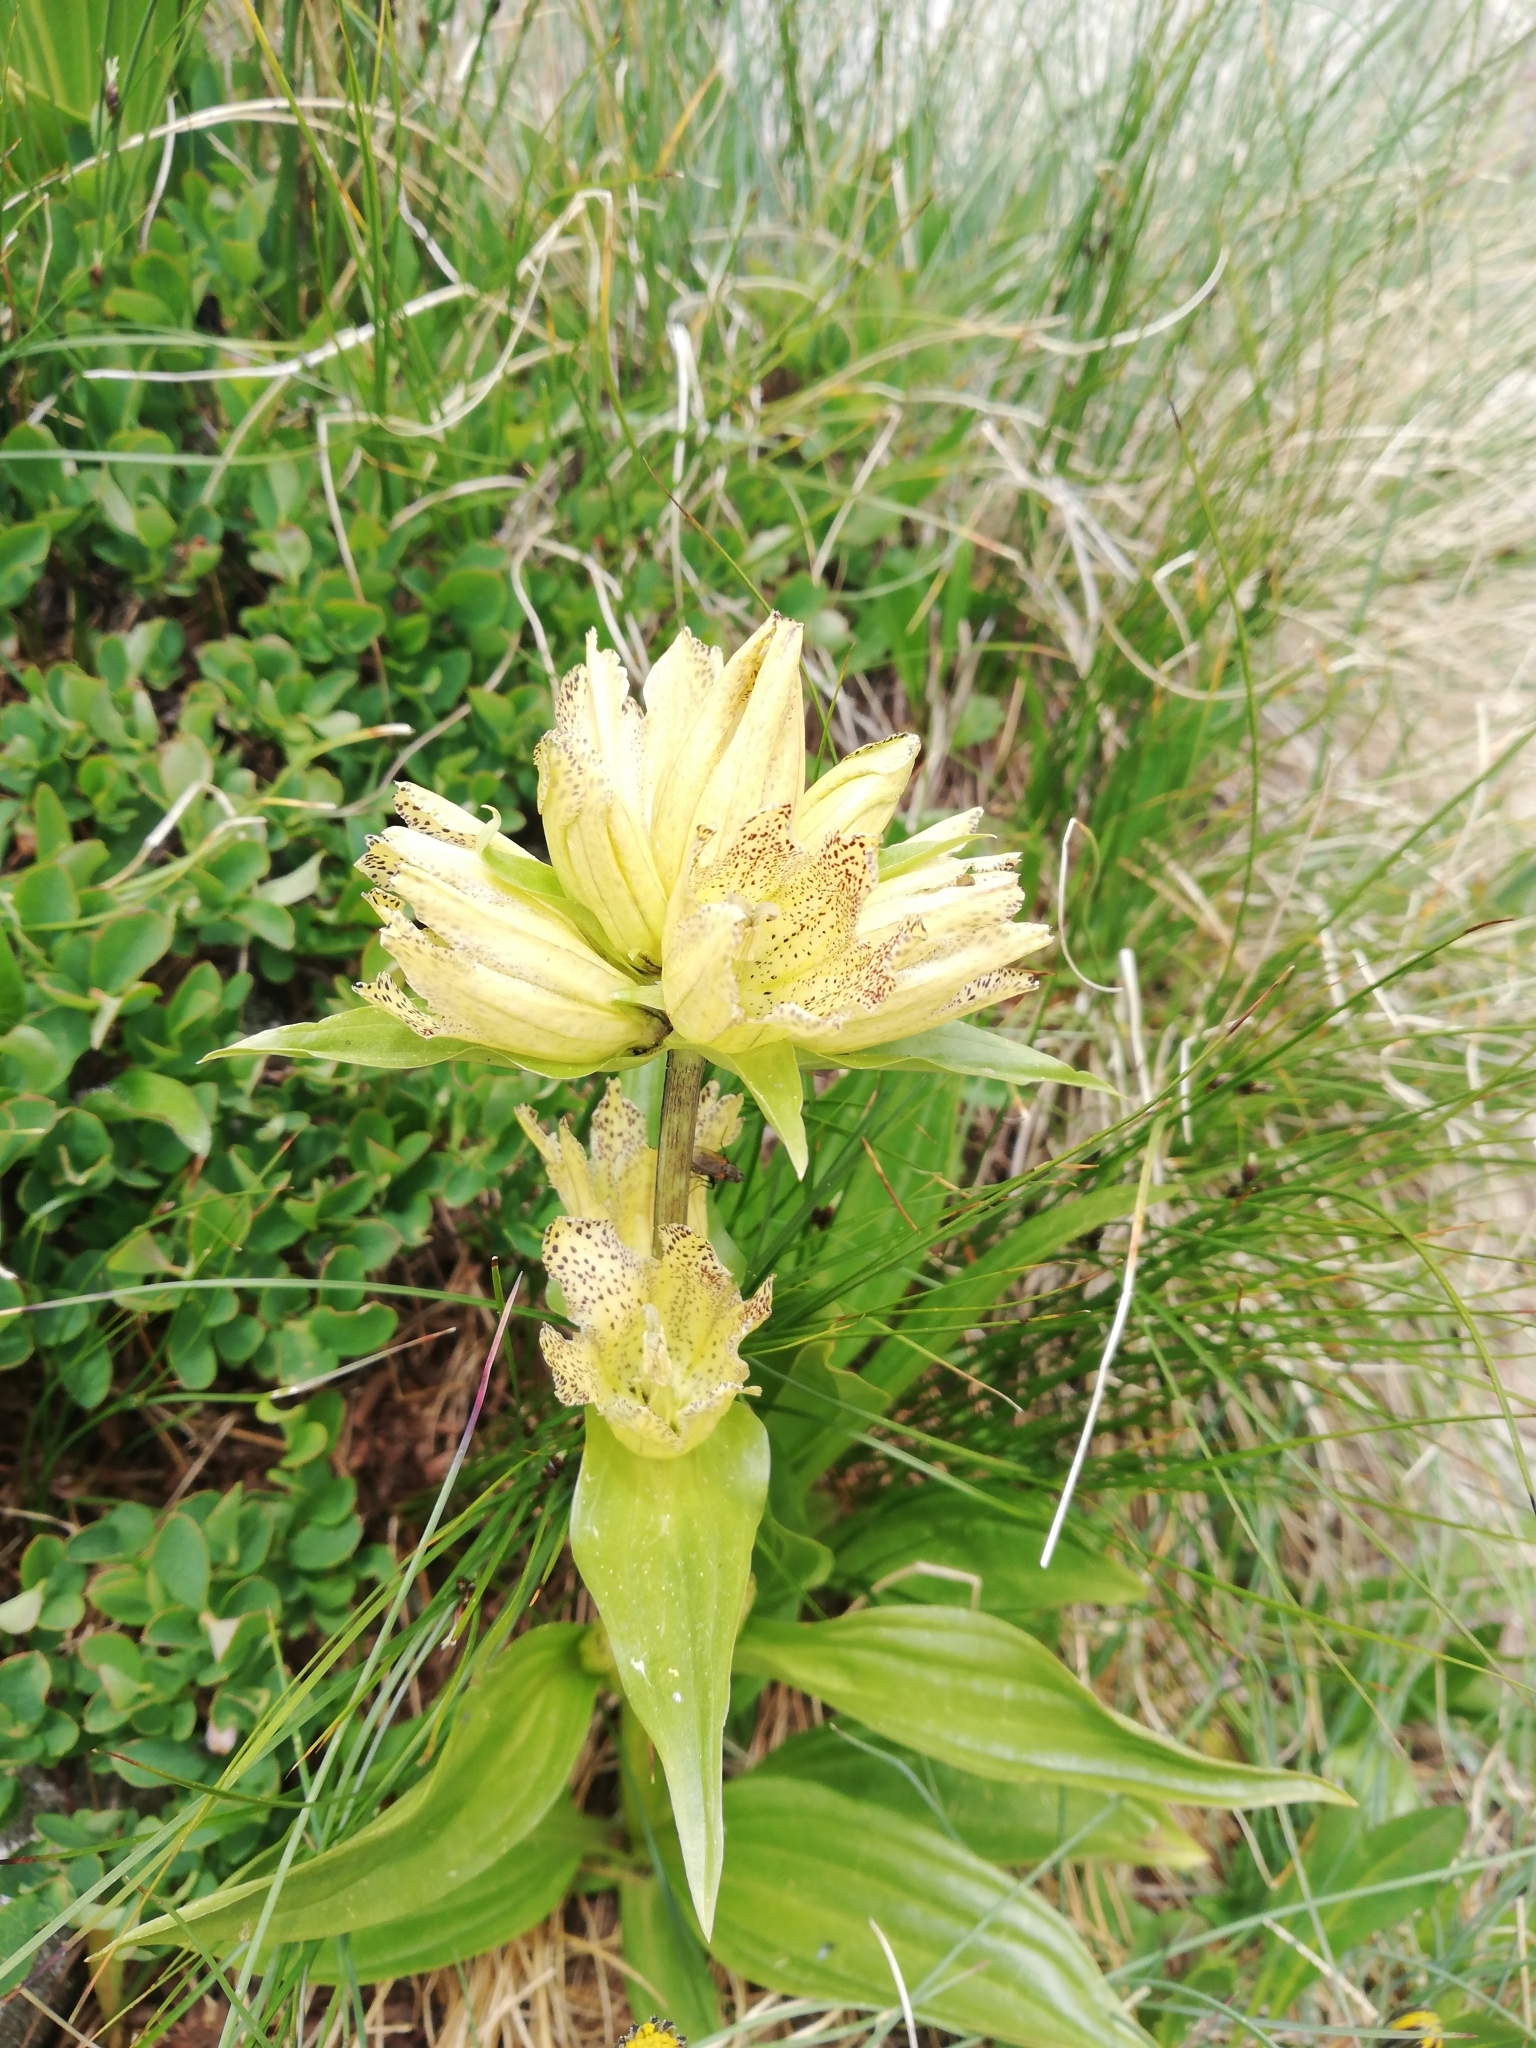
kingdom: Plantae
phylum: Tracheophyta
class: Magnoliopsida
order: Gentianales
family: Gentianaceae
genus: Gentiana
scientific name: Gentiana punctata
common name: Spotted gentian
